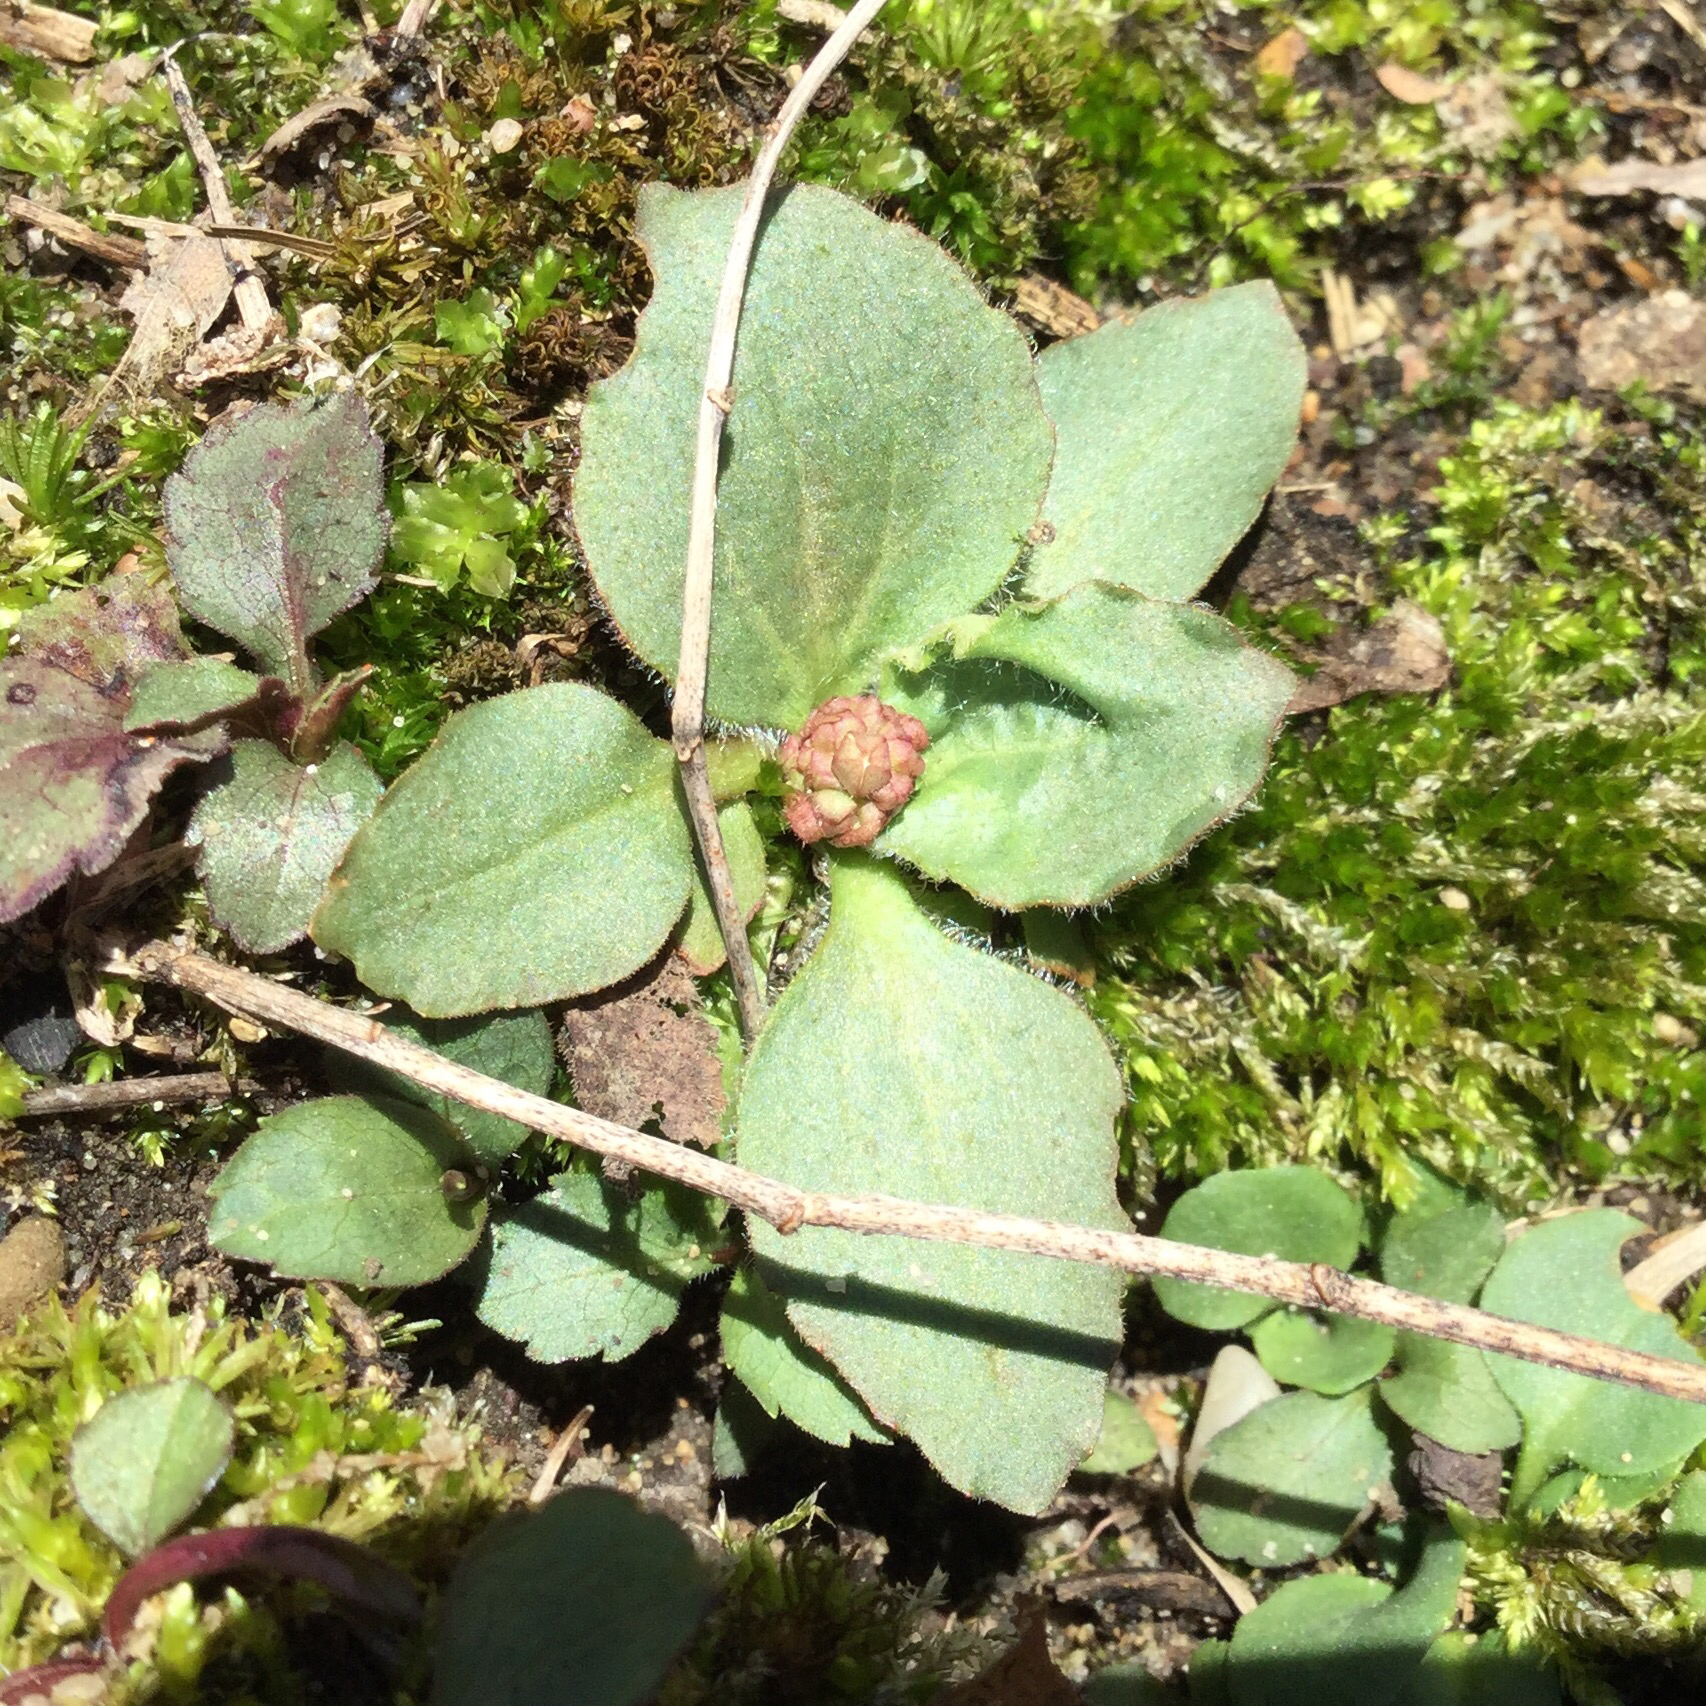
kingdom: Plantae
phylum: Tracheophyta
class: Magnoliopsida
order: Saxifragales
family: Saxifragaceae
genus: Micranthes
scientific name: Micranthes virginiensis
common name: Early saxifrage
